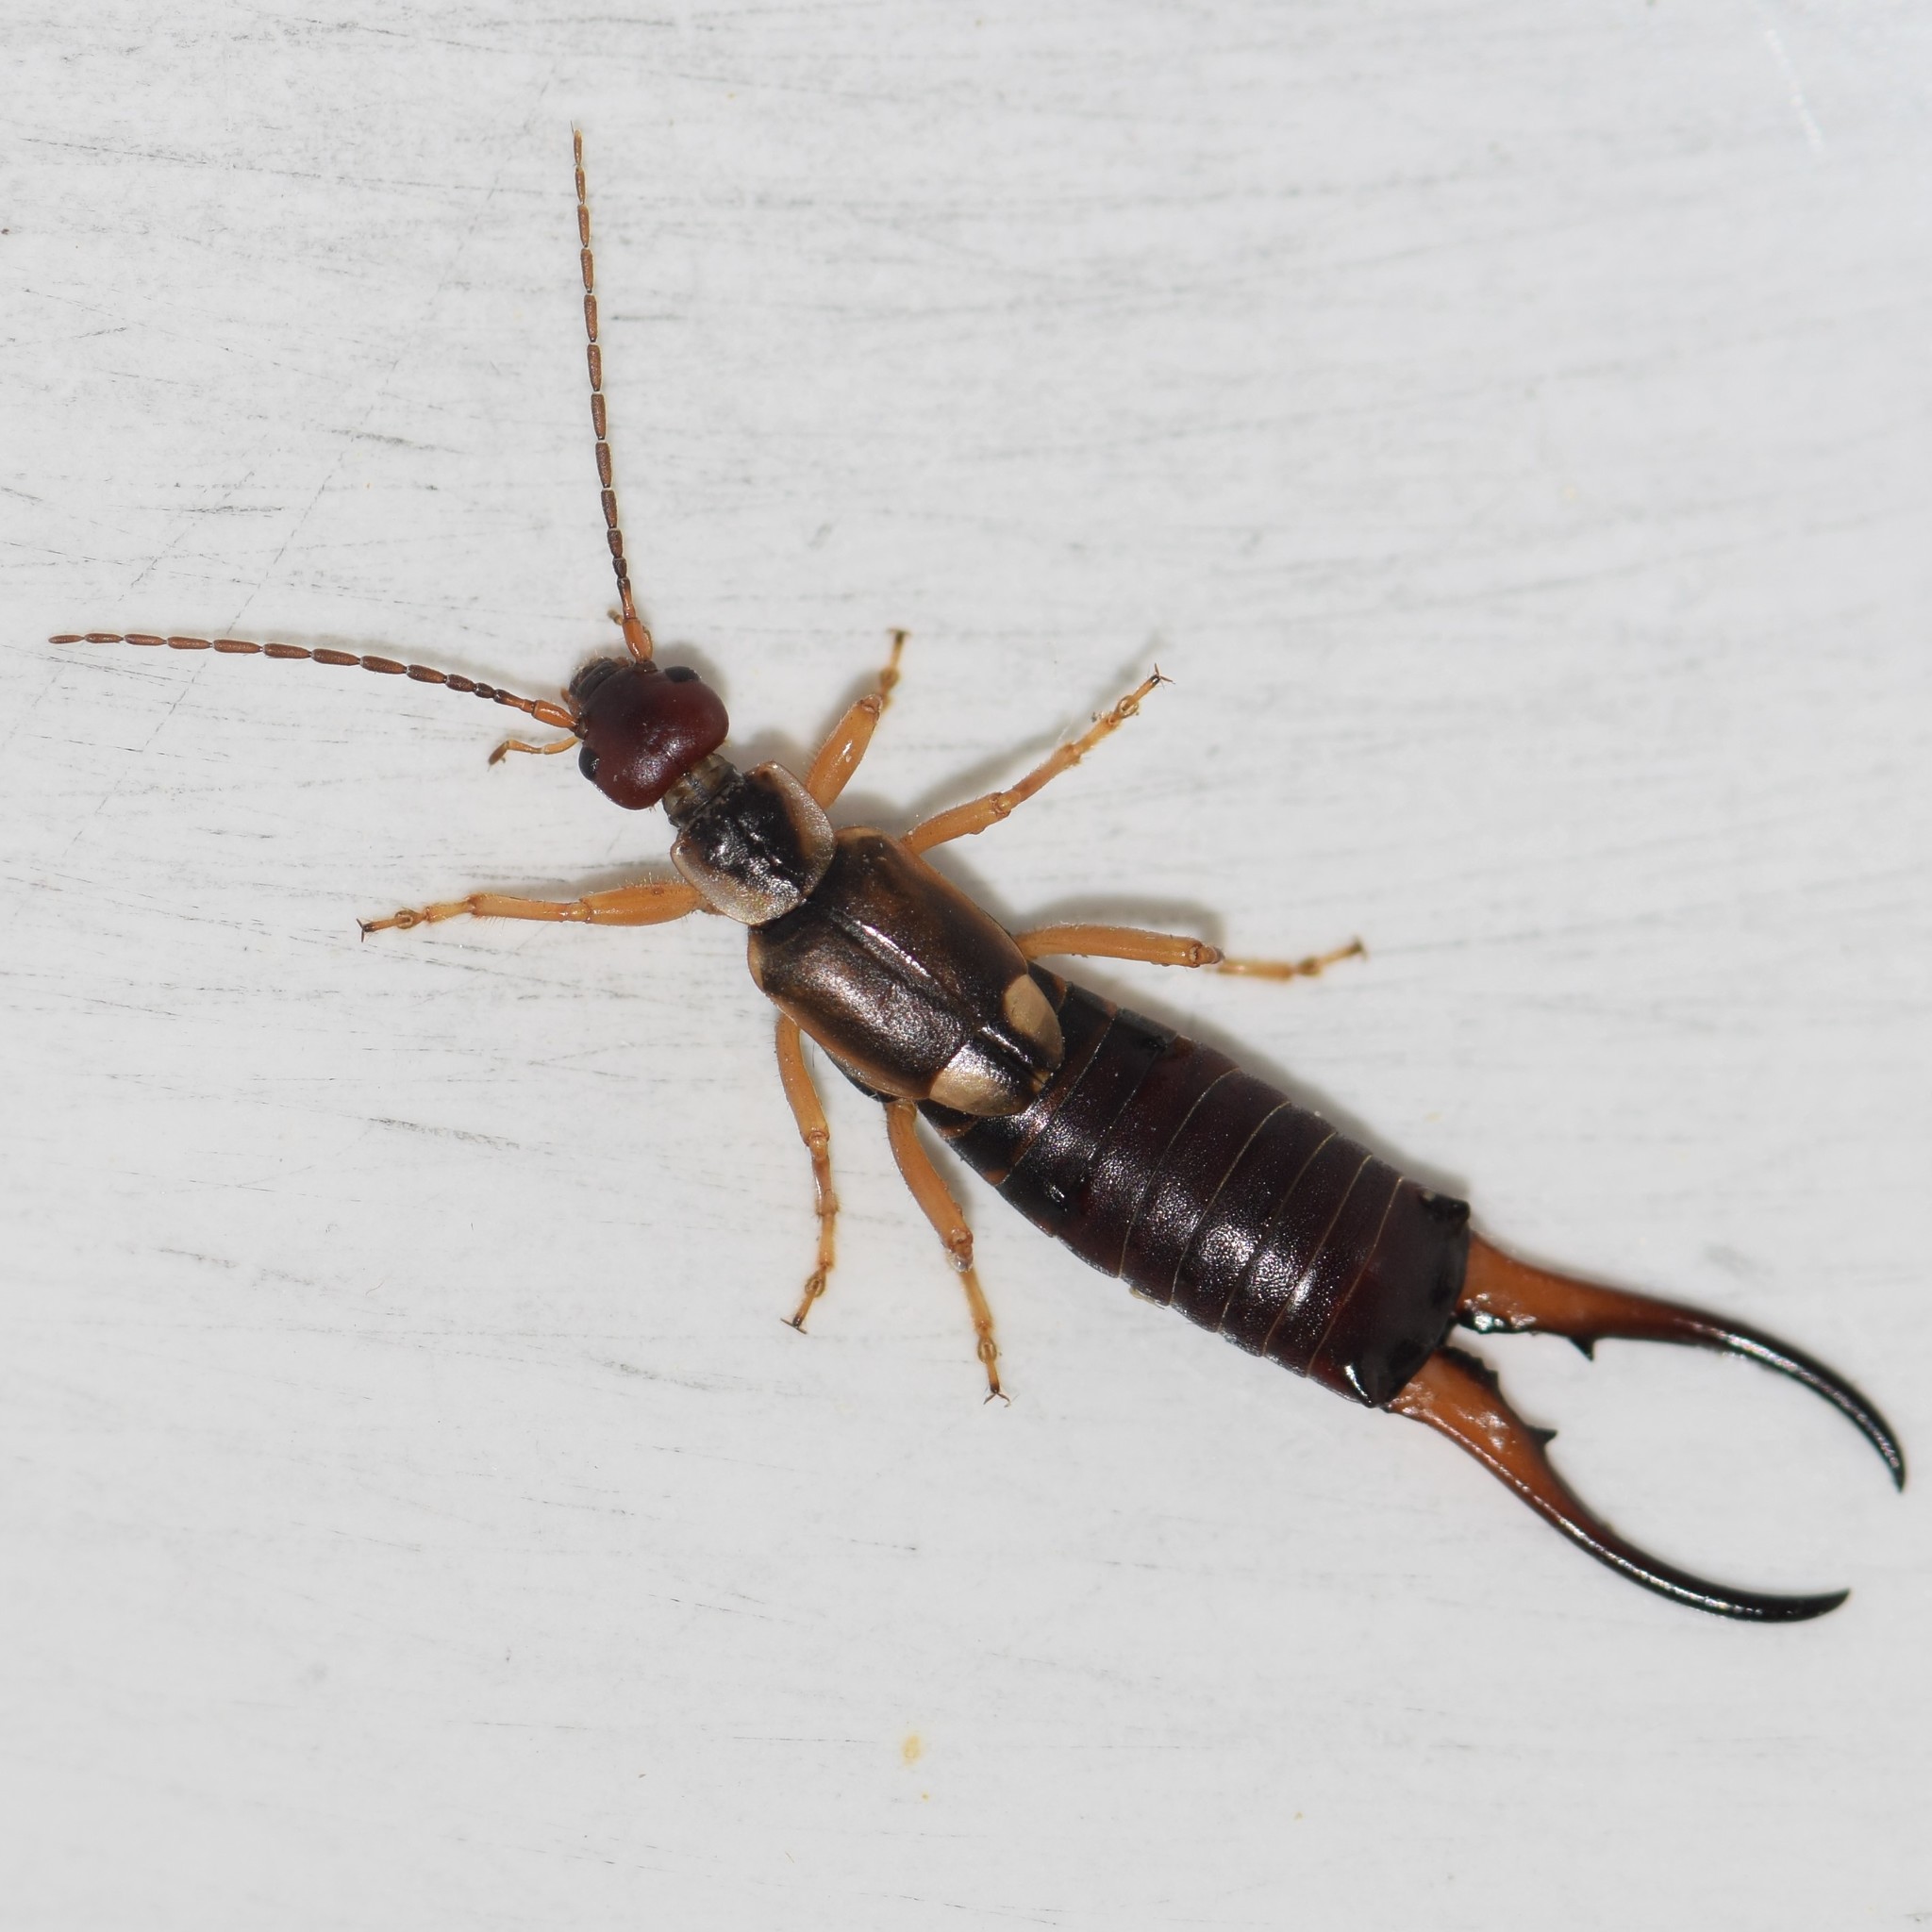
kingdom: Animalia
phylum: Arthropoda
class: Insecta
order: Dermaptera
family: Forficulidae
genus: Forficula
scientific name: Forficula
